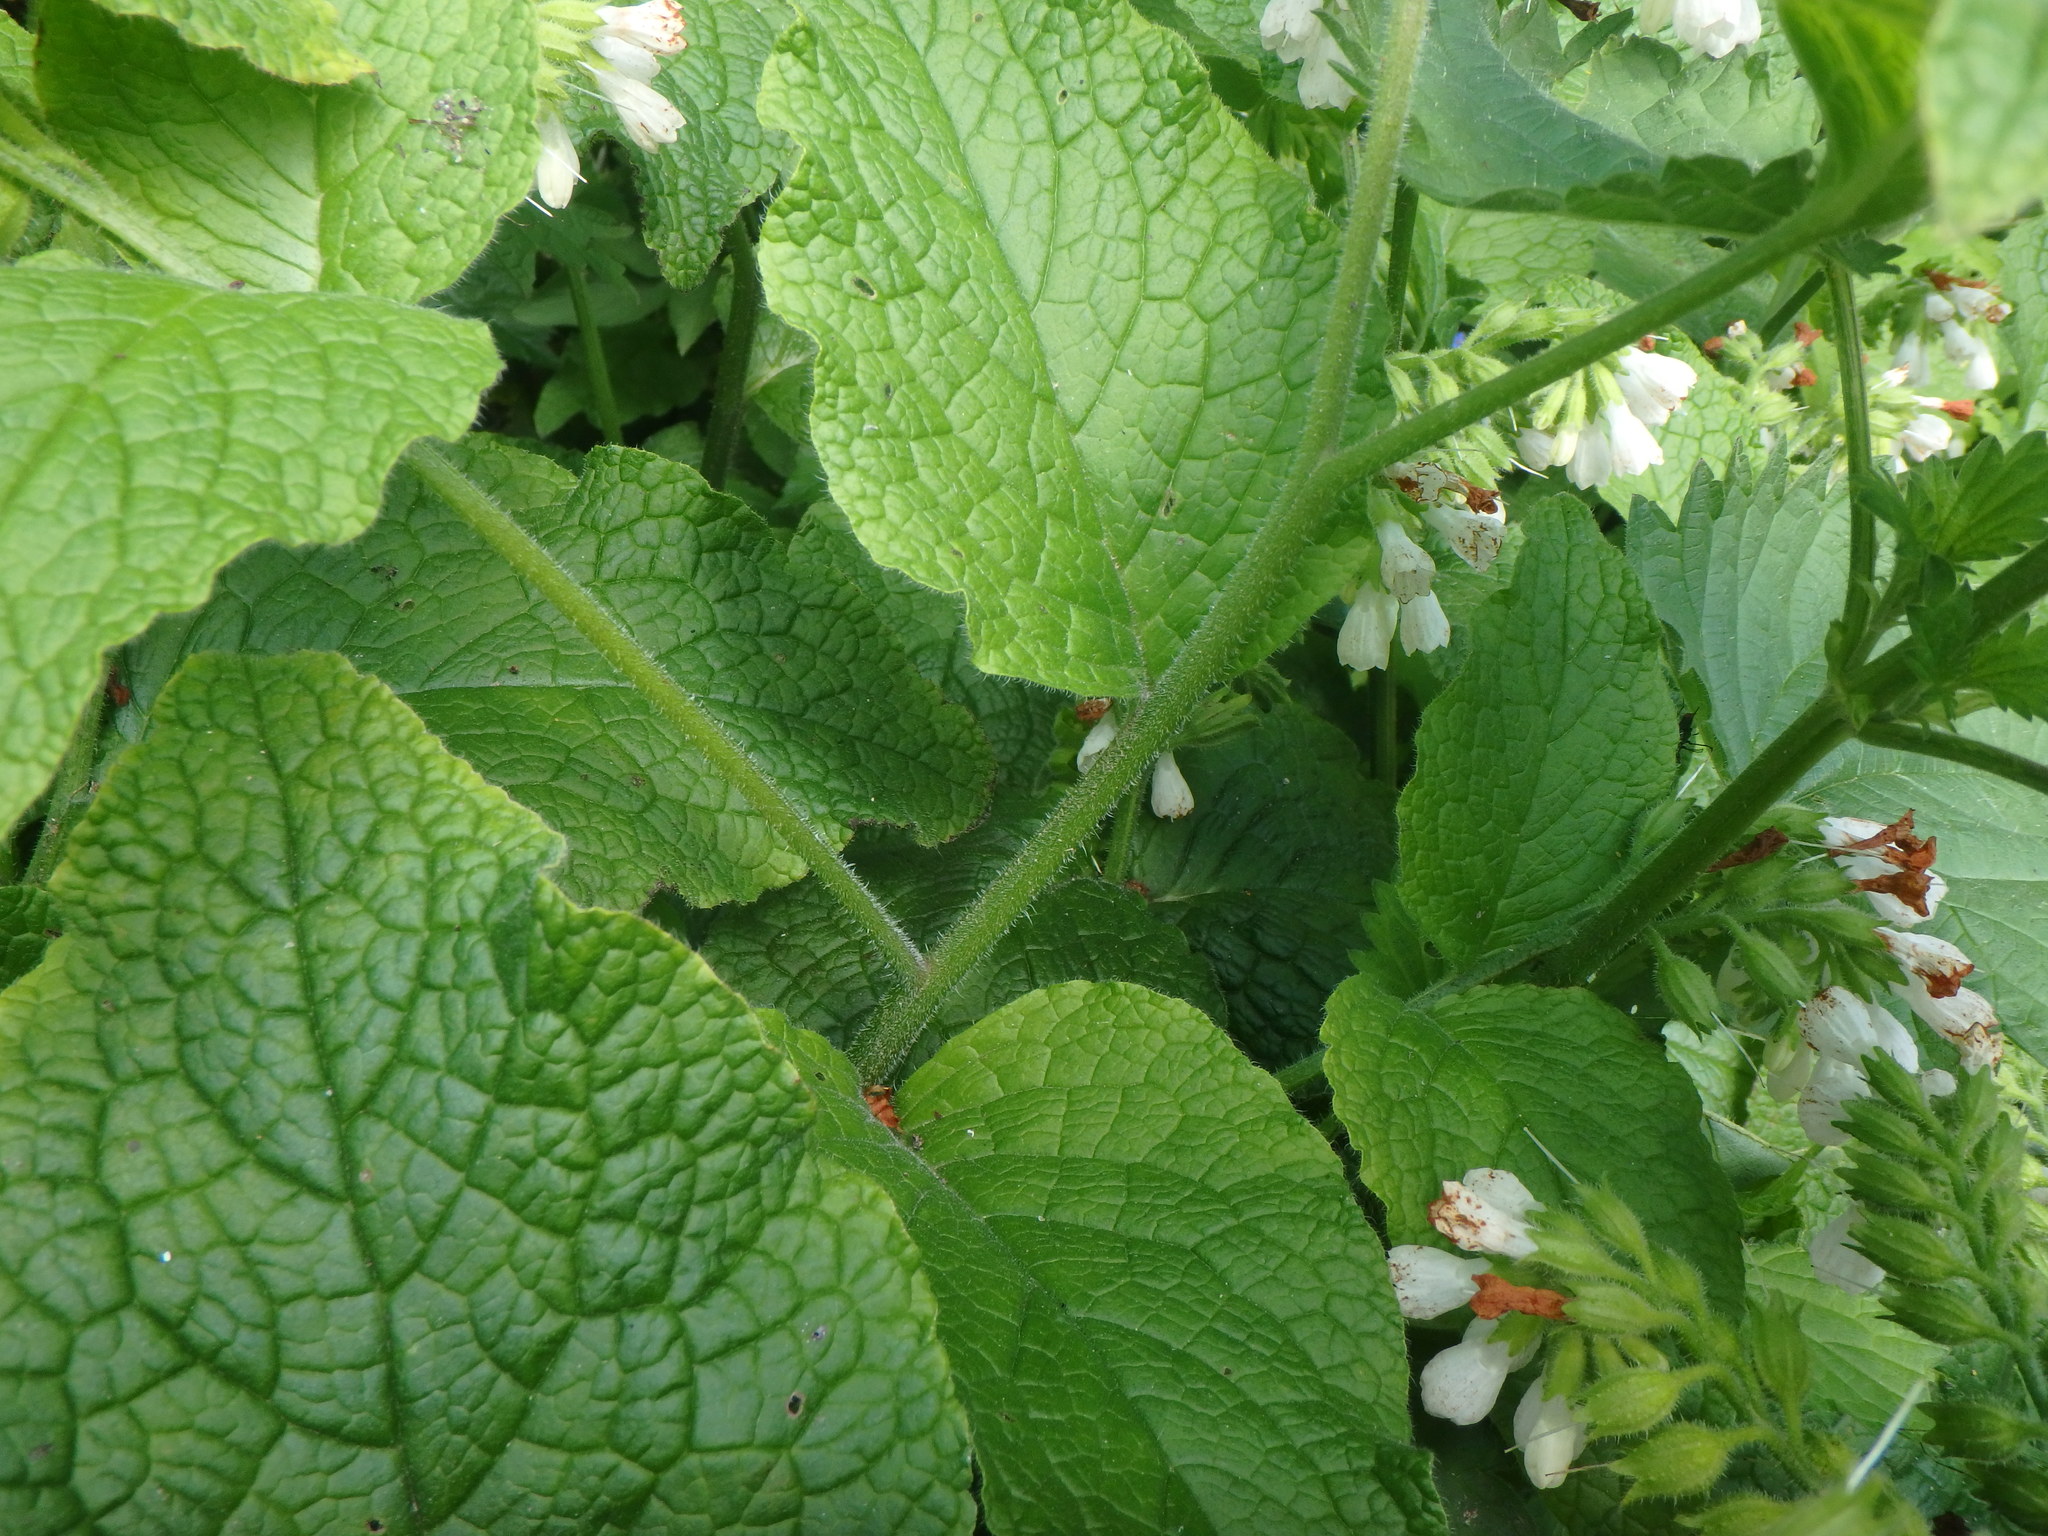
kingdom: Plantae
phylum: Tracheophyta
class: Magnoliopsida
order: Boraginales
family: Boraginaceae
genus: Symphytum
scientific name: Symphytum orientale
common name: White comfrey
